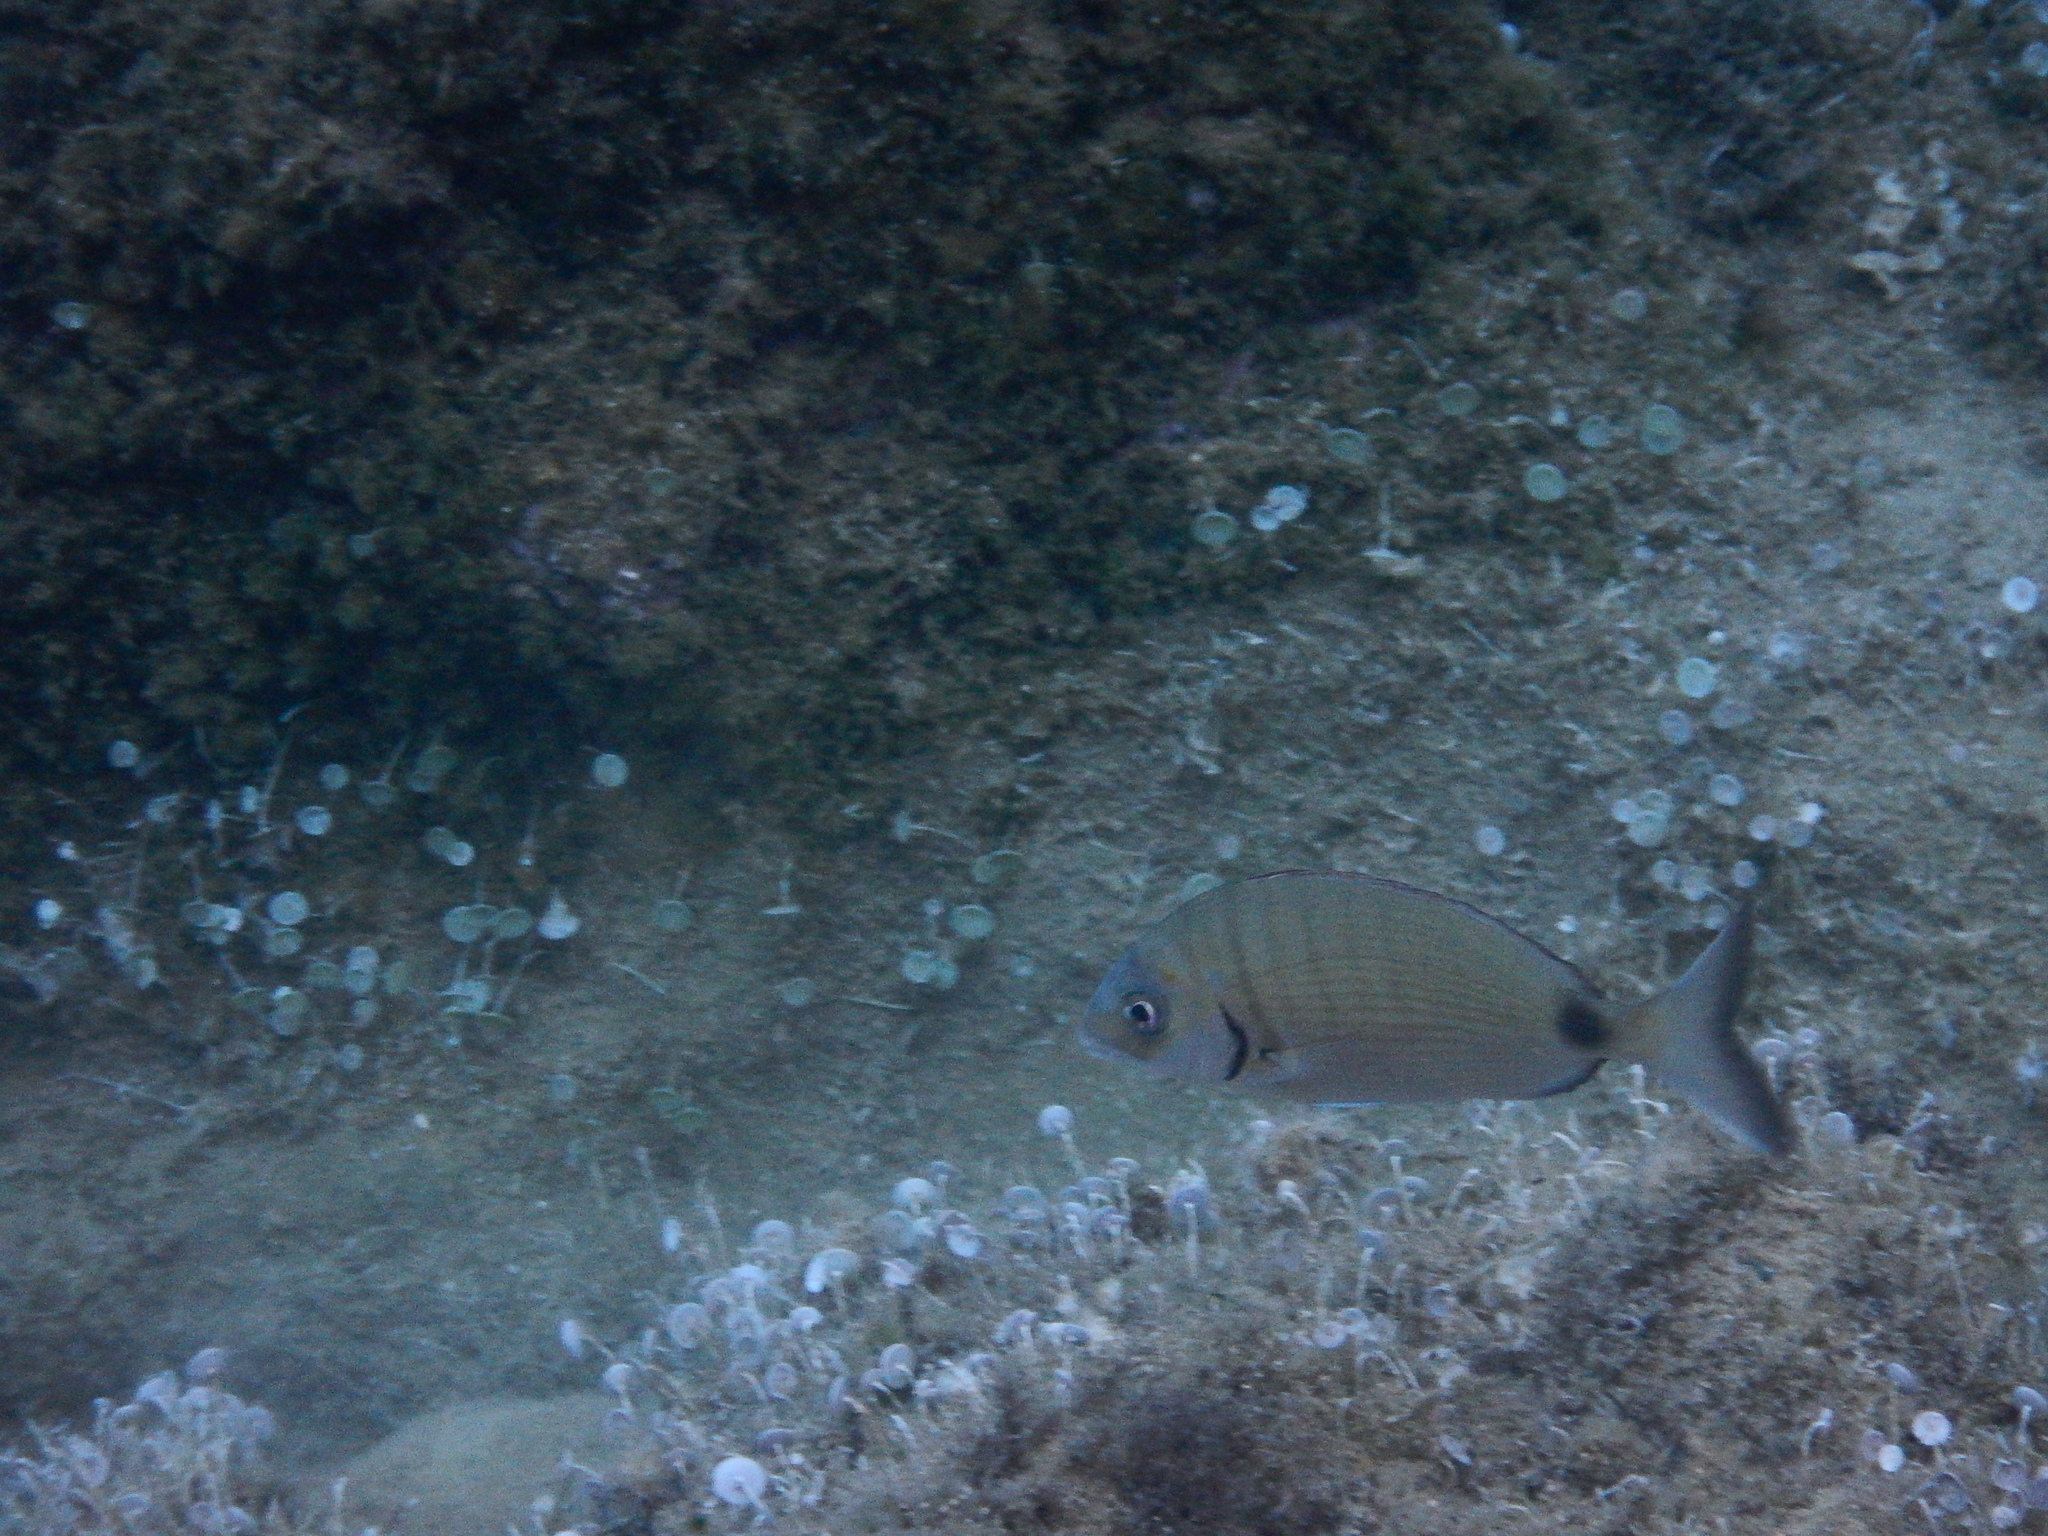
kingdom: Animalia
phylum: Chordata
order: Perciformes
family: Sparidae
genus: Diplodus
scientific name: Diplodus sargus
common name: White seabream
